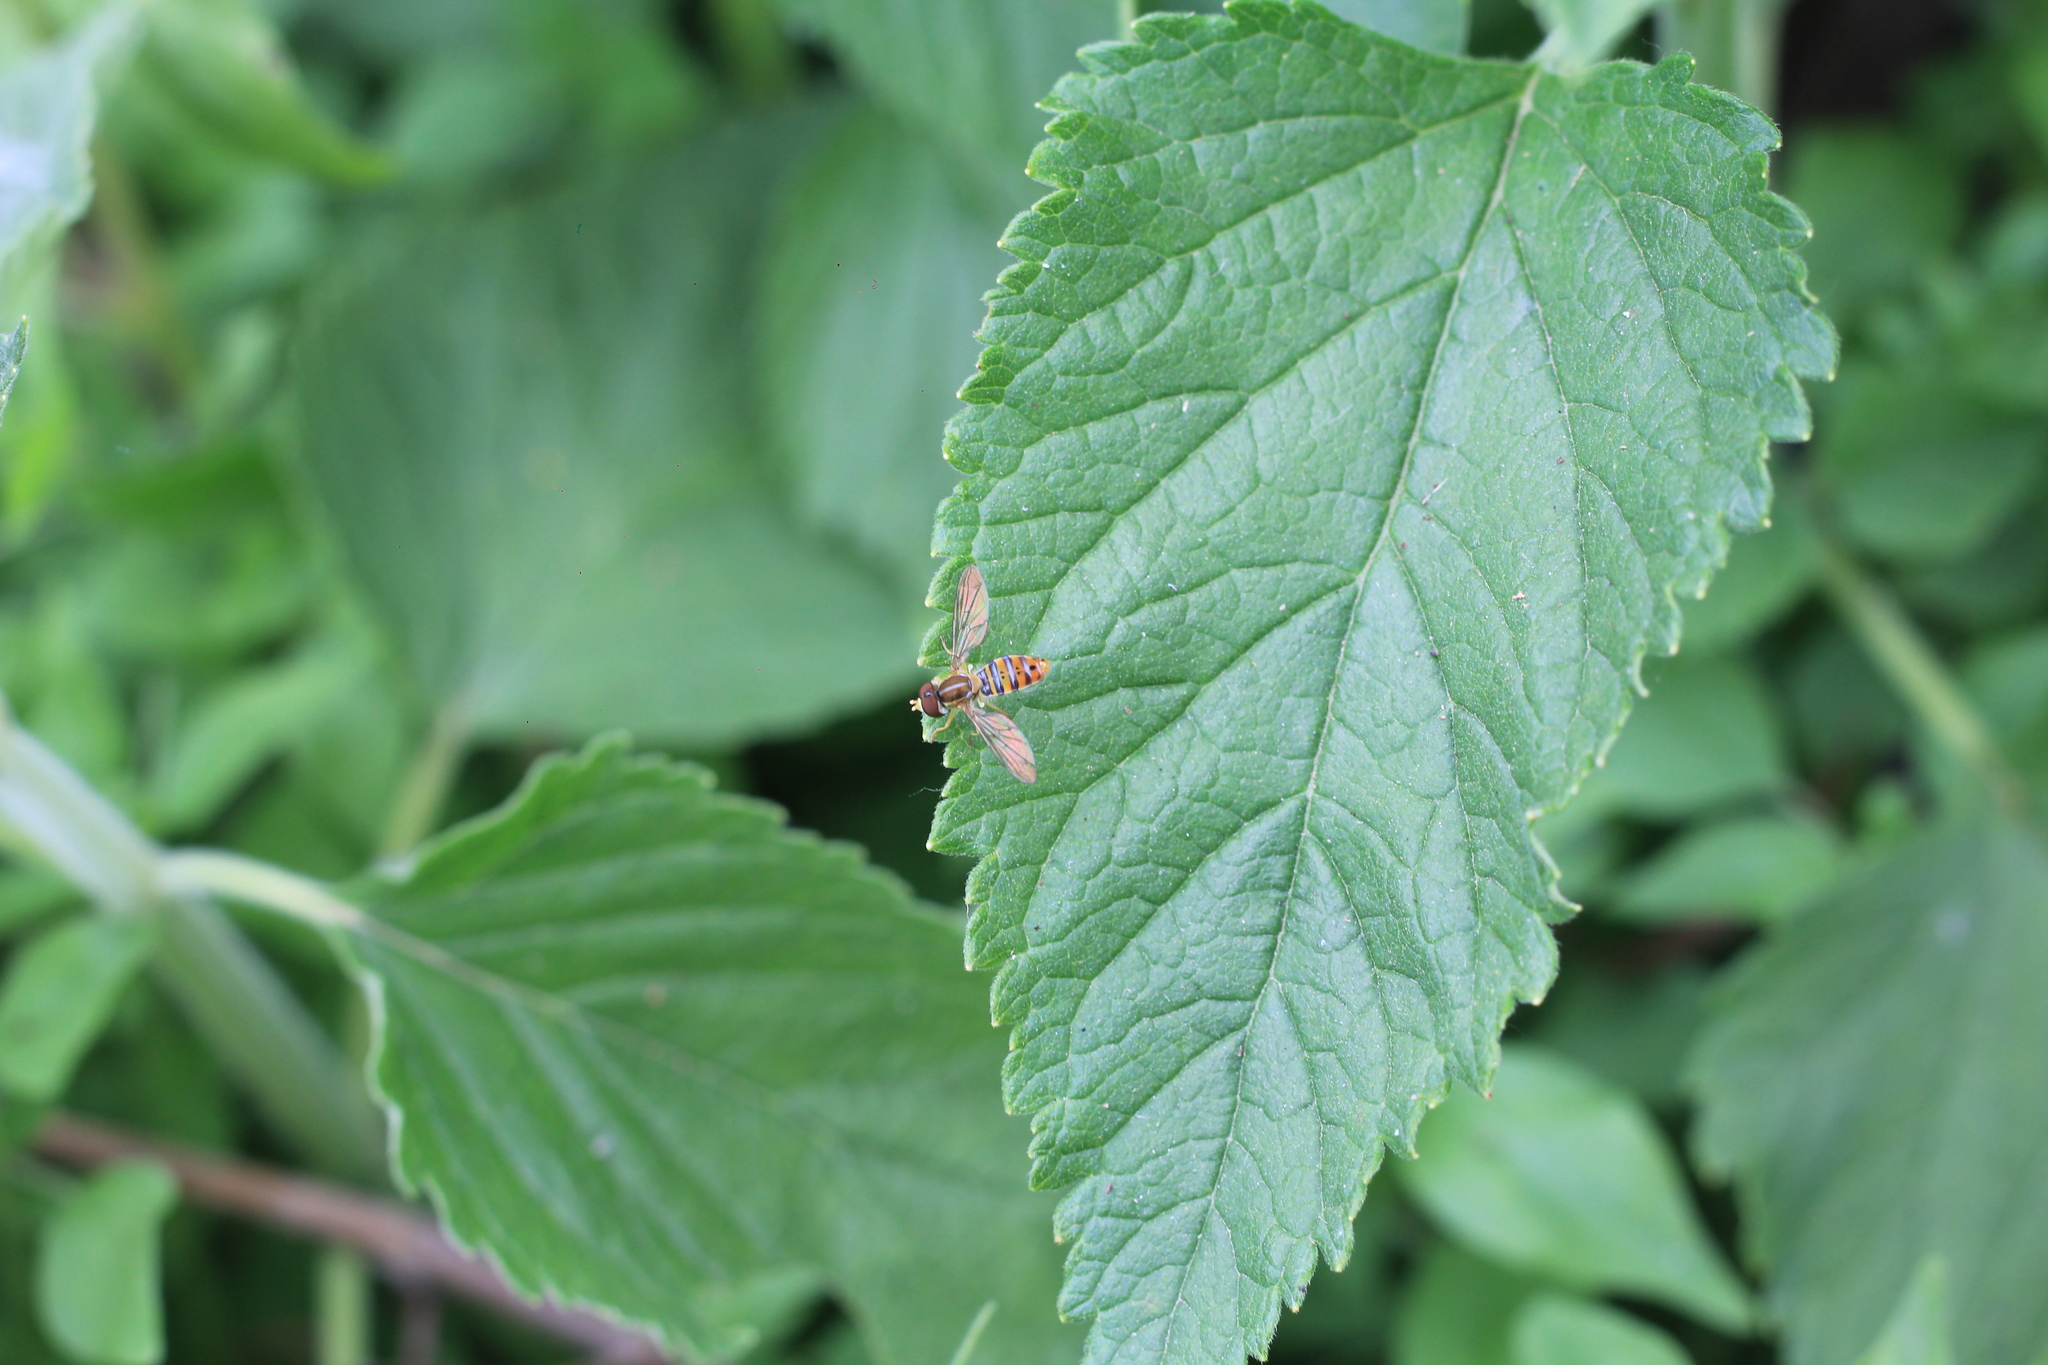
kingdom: Animalia
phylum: Arthropoda
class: Insecta
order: Diptera
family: Syrphidae
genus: Toxomerus
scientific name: Toxomerus
